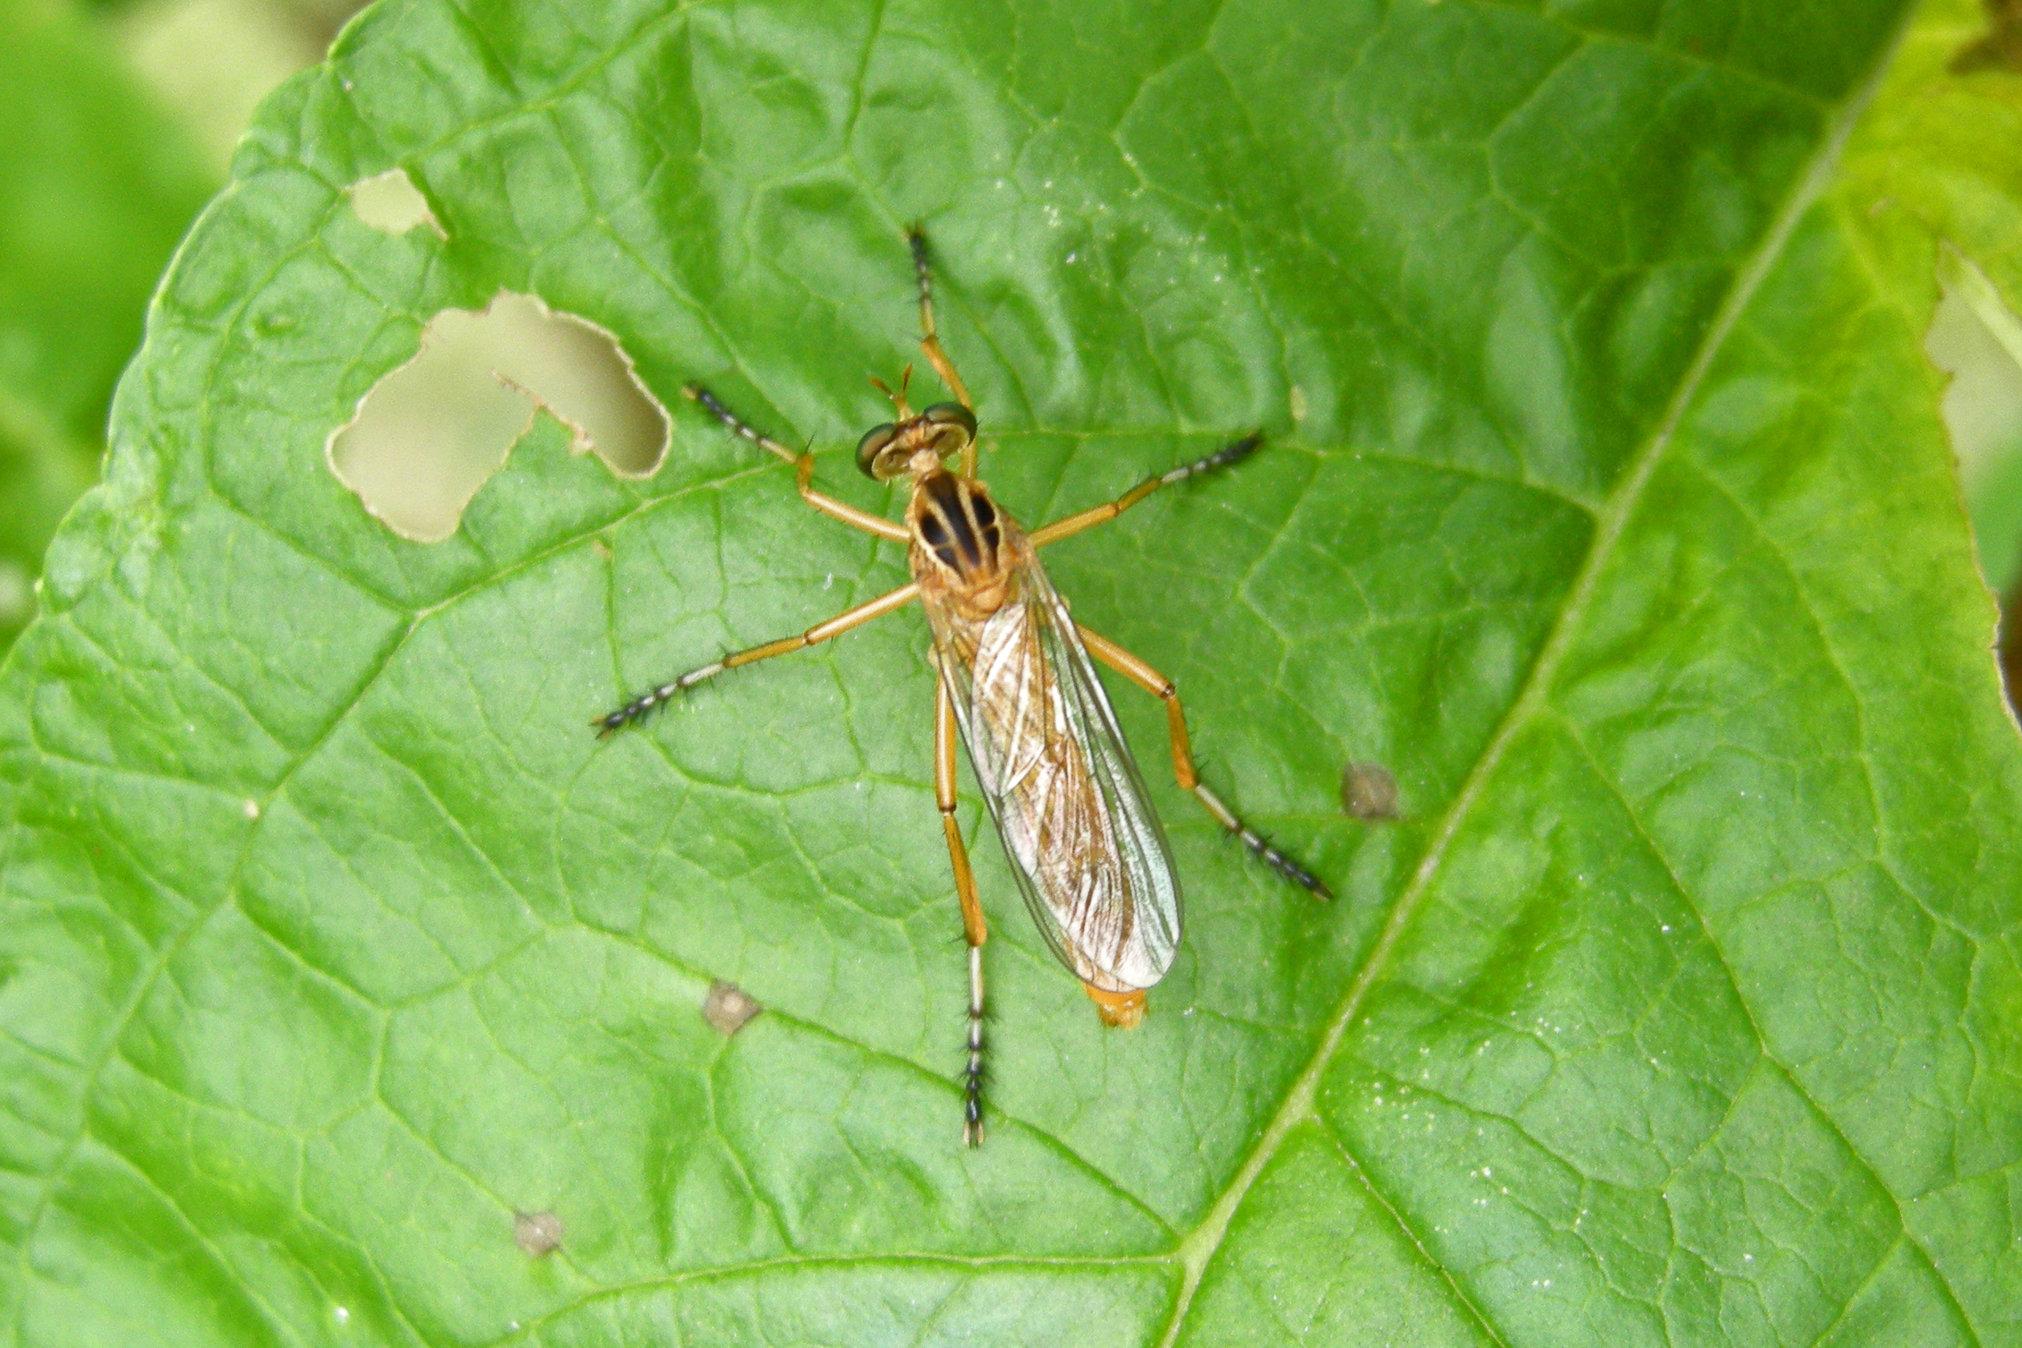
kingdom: Animalia
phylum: Arthropoda
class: Insecta
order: Diptera
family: Asilidae
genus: Diogmites
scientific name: Diogmites neoternatus
